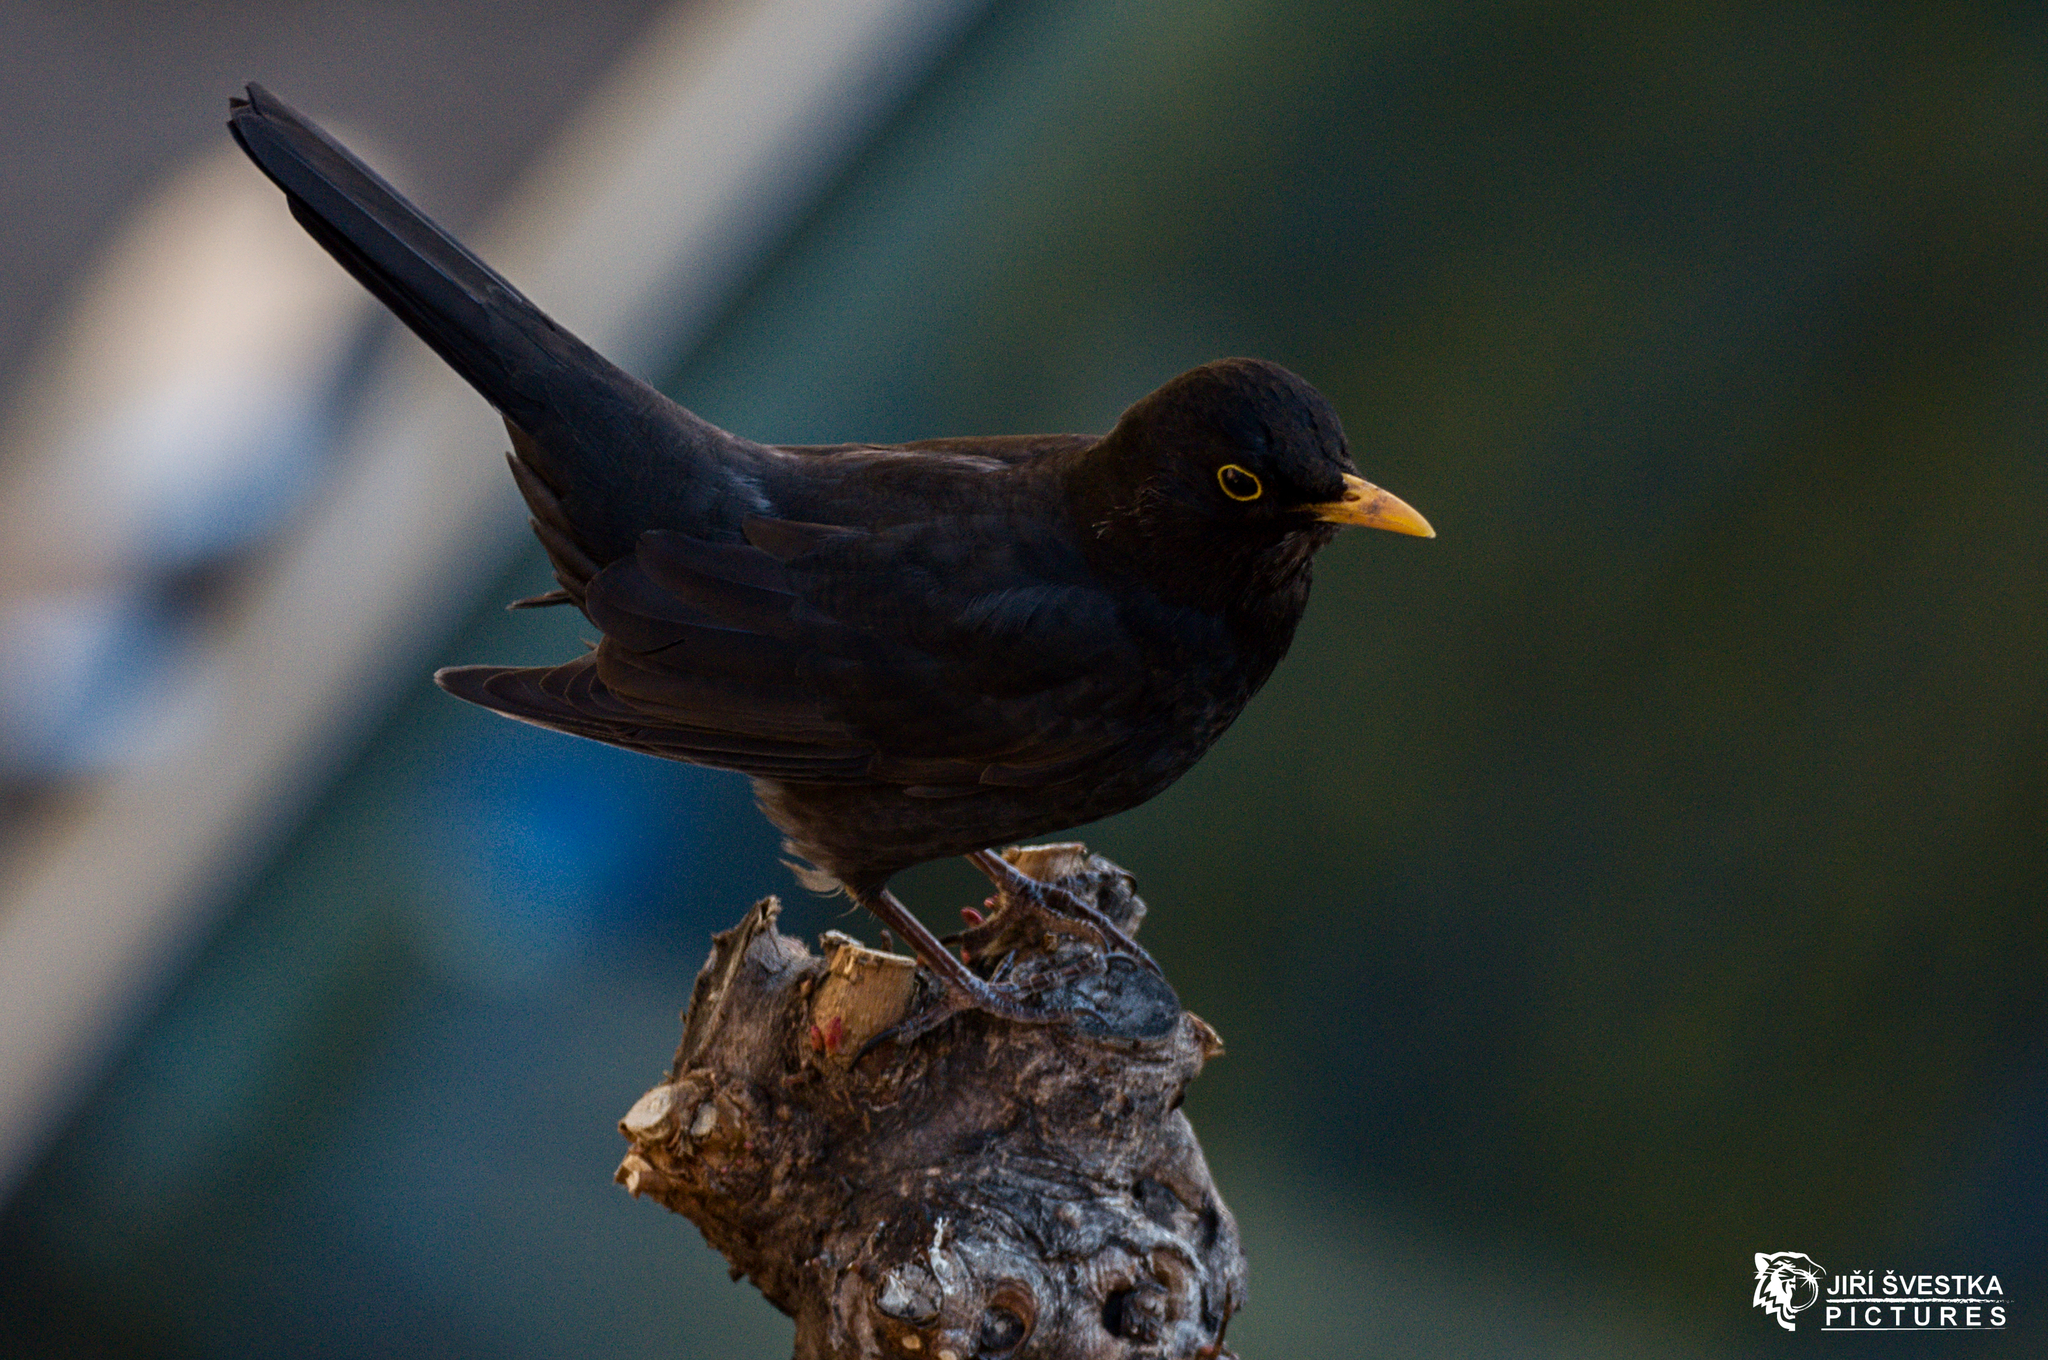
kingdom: Animalia
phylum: Chordata
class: Aves
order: Passeriformes
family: Turdidae
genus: Turdus
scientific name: Turdus merula
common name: Common blackbird
